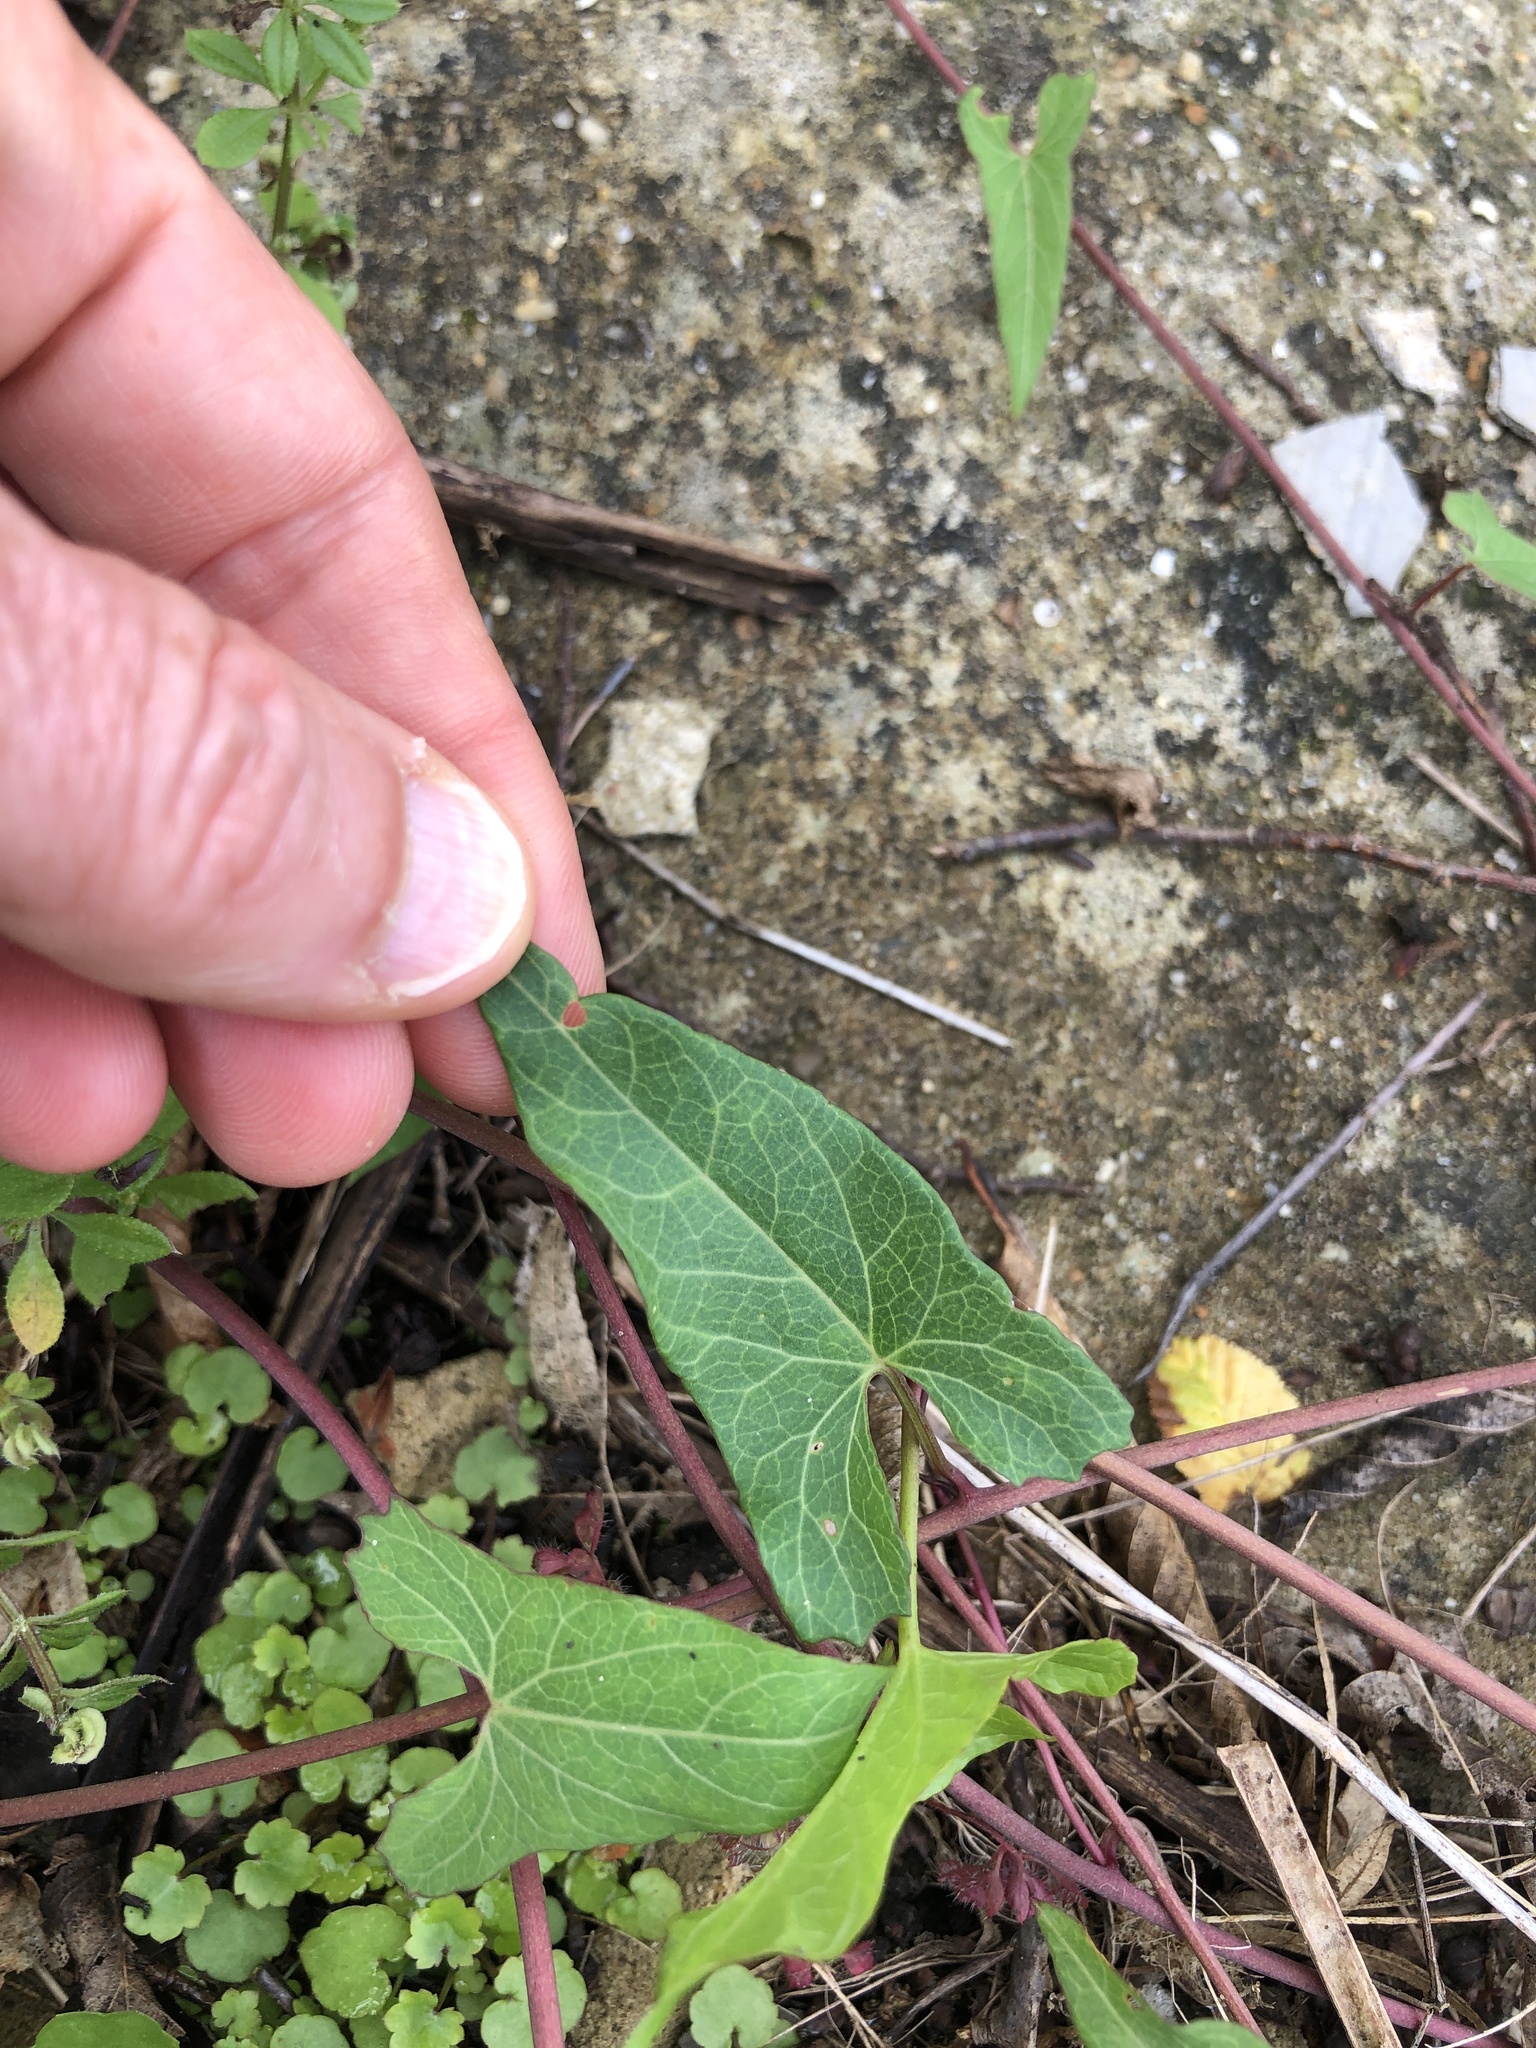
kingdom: Plantae
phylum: Tracheophyta
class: Magnoliopsida
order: Solanales
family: Convolvulaceae
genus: Calystegia
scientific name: Calystegia sepium
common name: Hedge bindweed
